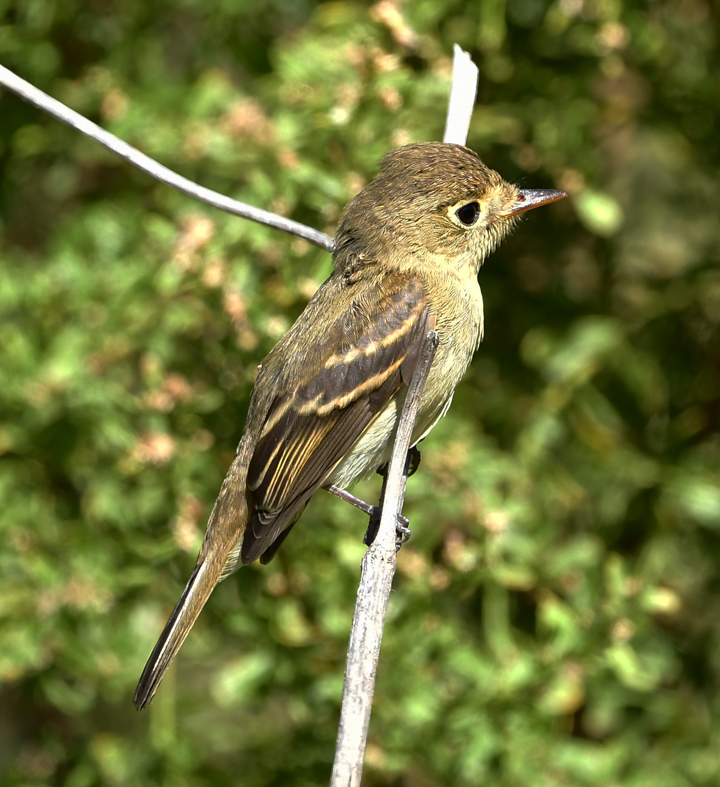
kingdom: Animalia
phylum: Chordata
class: Aves
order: Passeriformes
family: Tyrannidae
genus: Empidonax
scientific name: Empidonax difficilis
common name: Pacific-slope flycatcher
